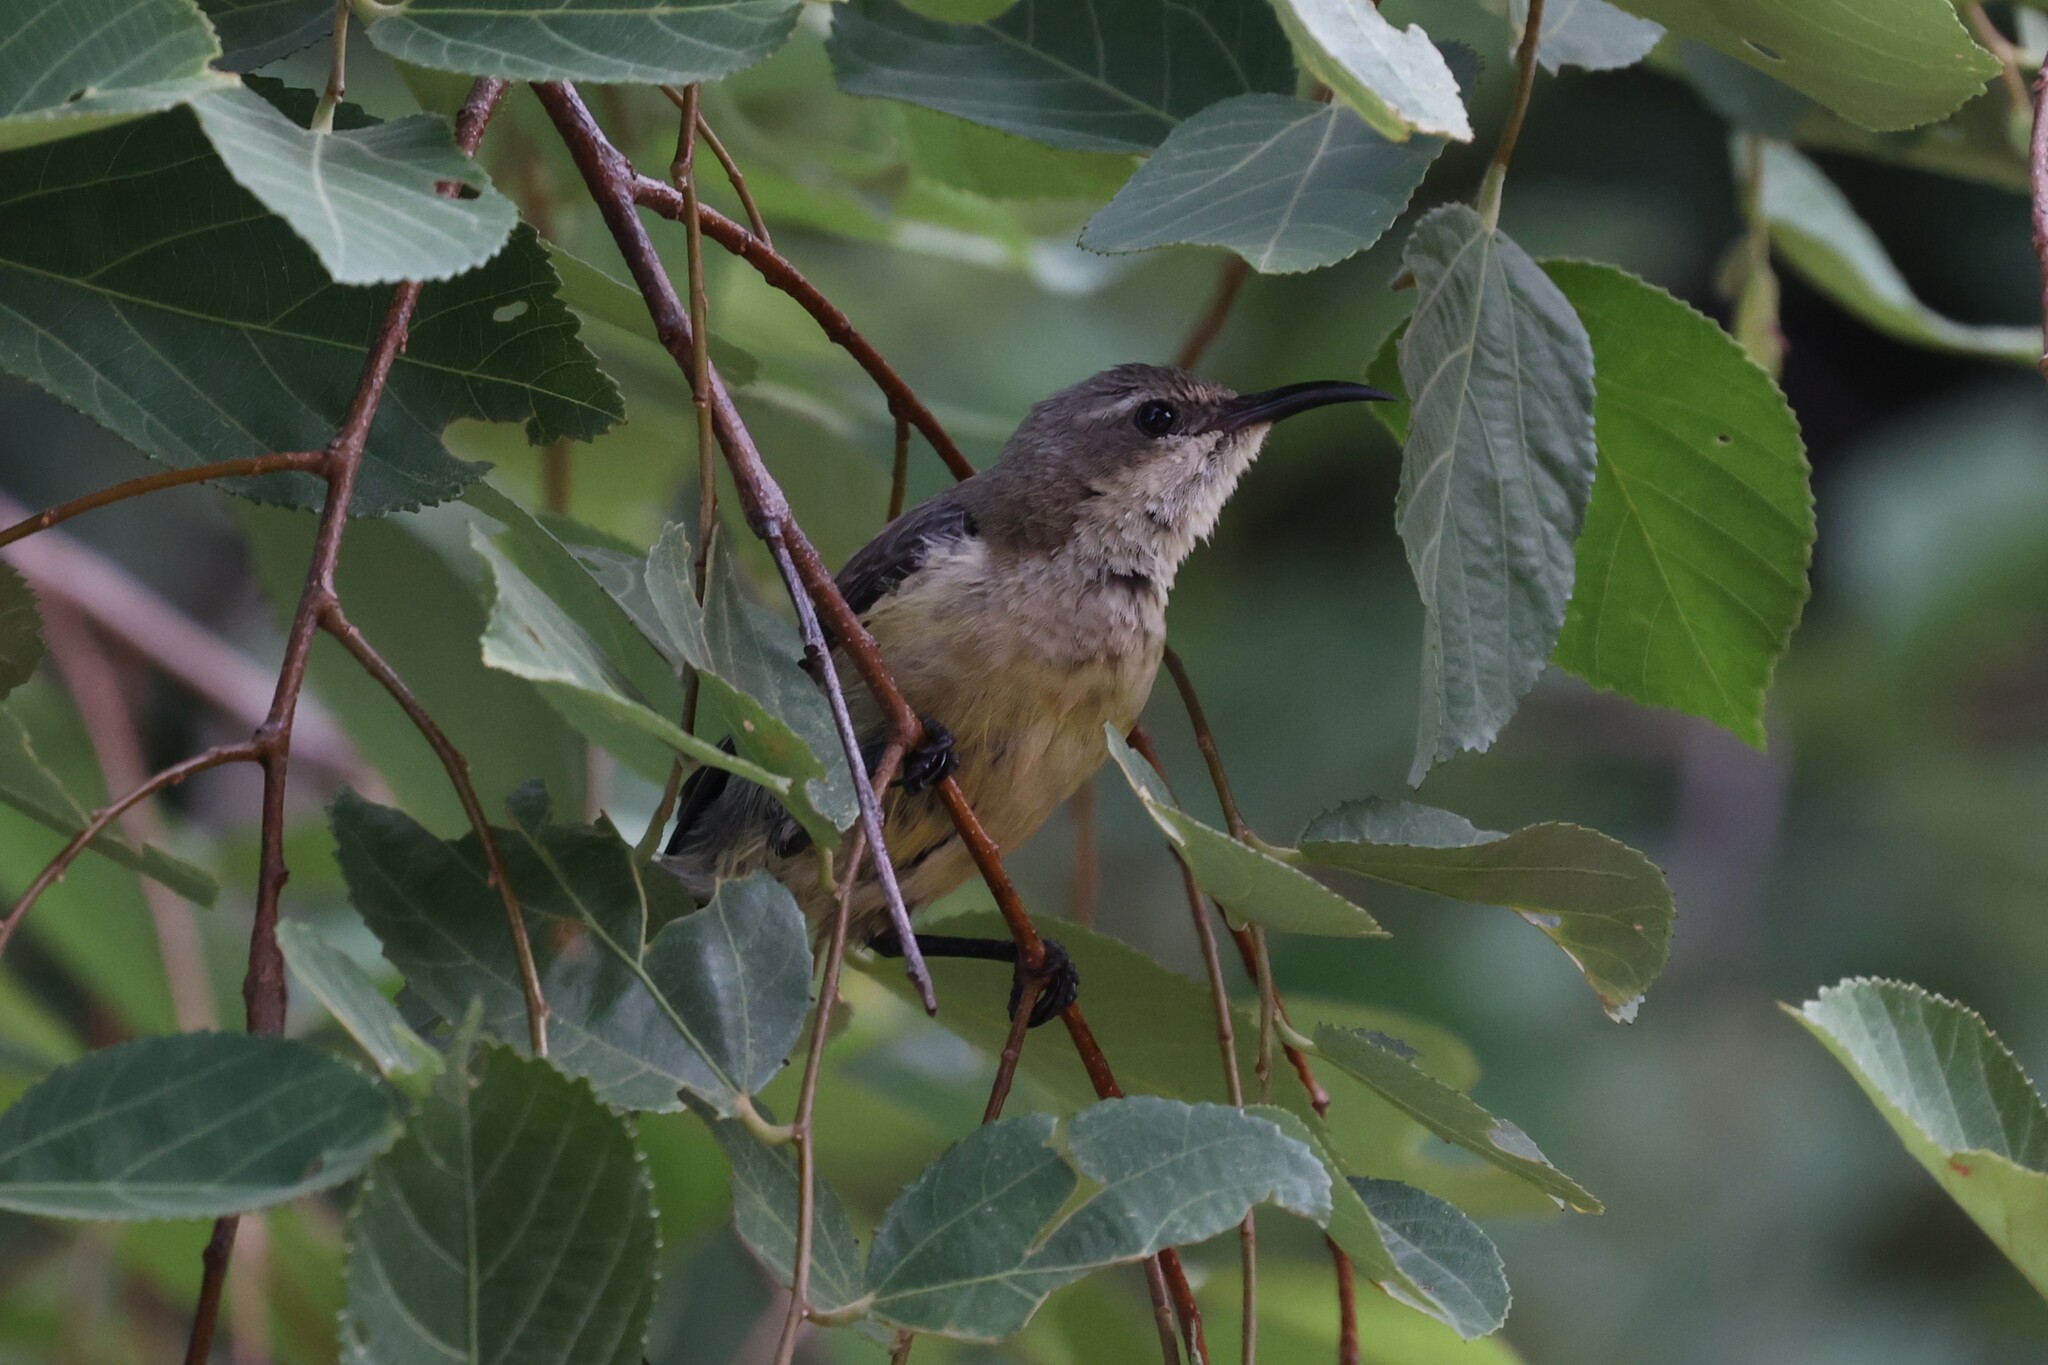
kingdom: Animalia
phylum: Chordata
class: Aves
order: Passeriformes
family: Nectariniidae
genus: Cinnyris
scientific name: Cinnyris pulchellus
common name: Beautiful sunbird
